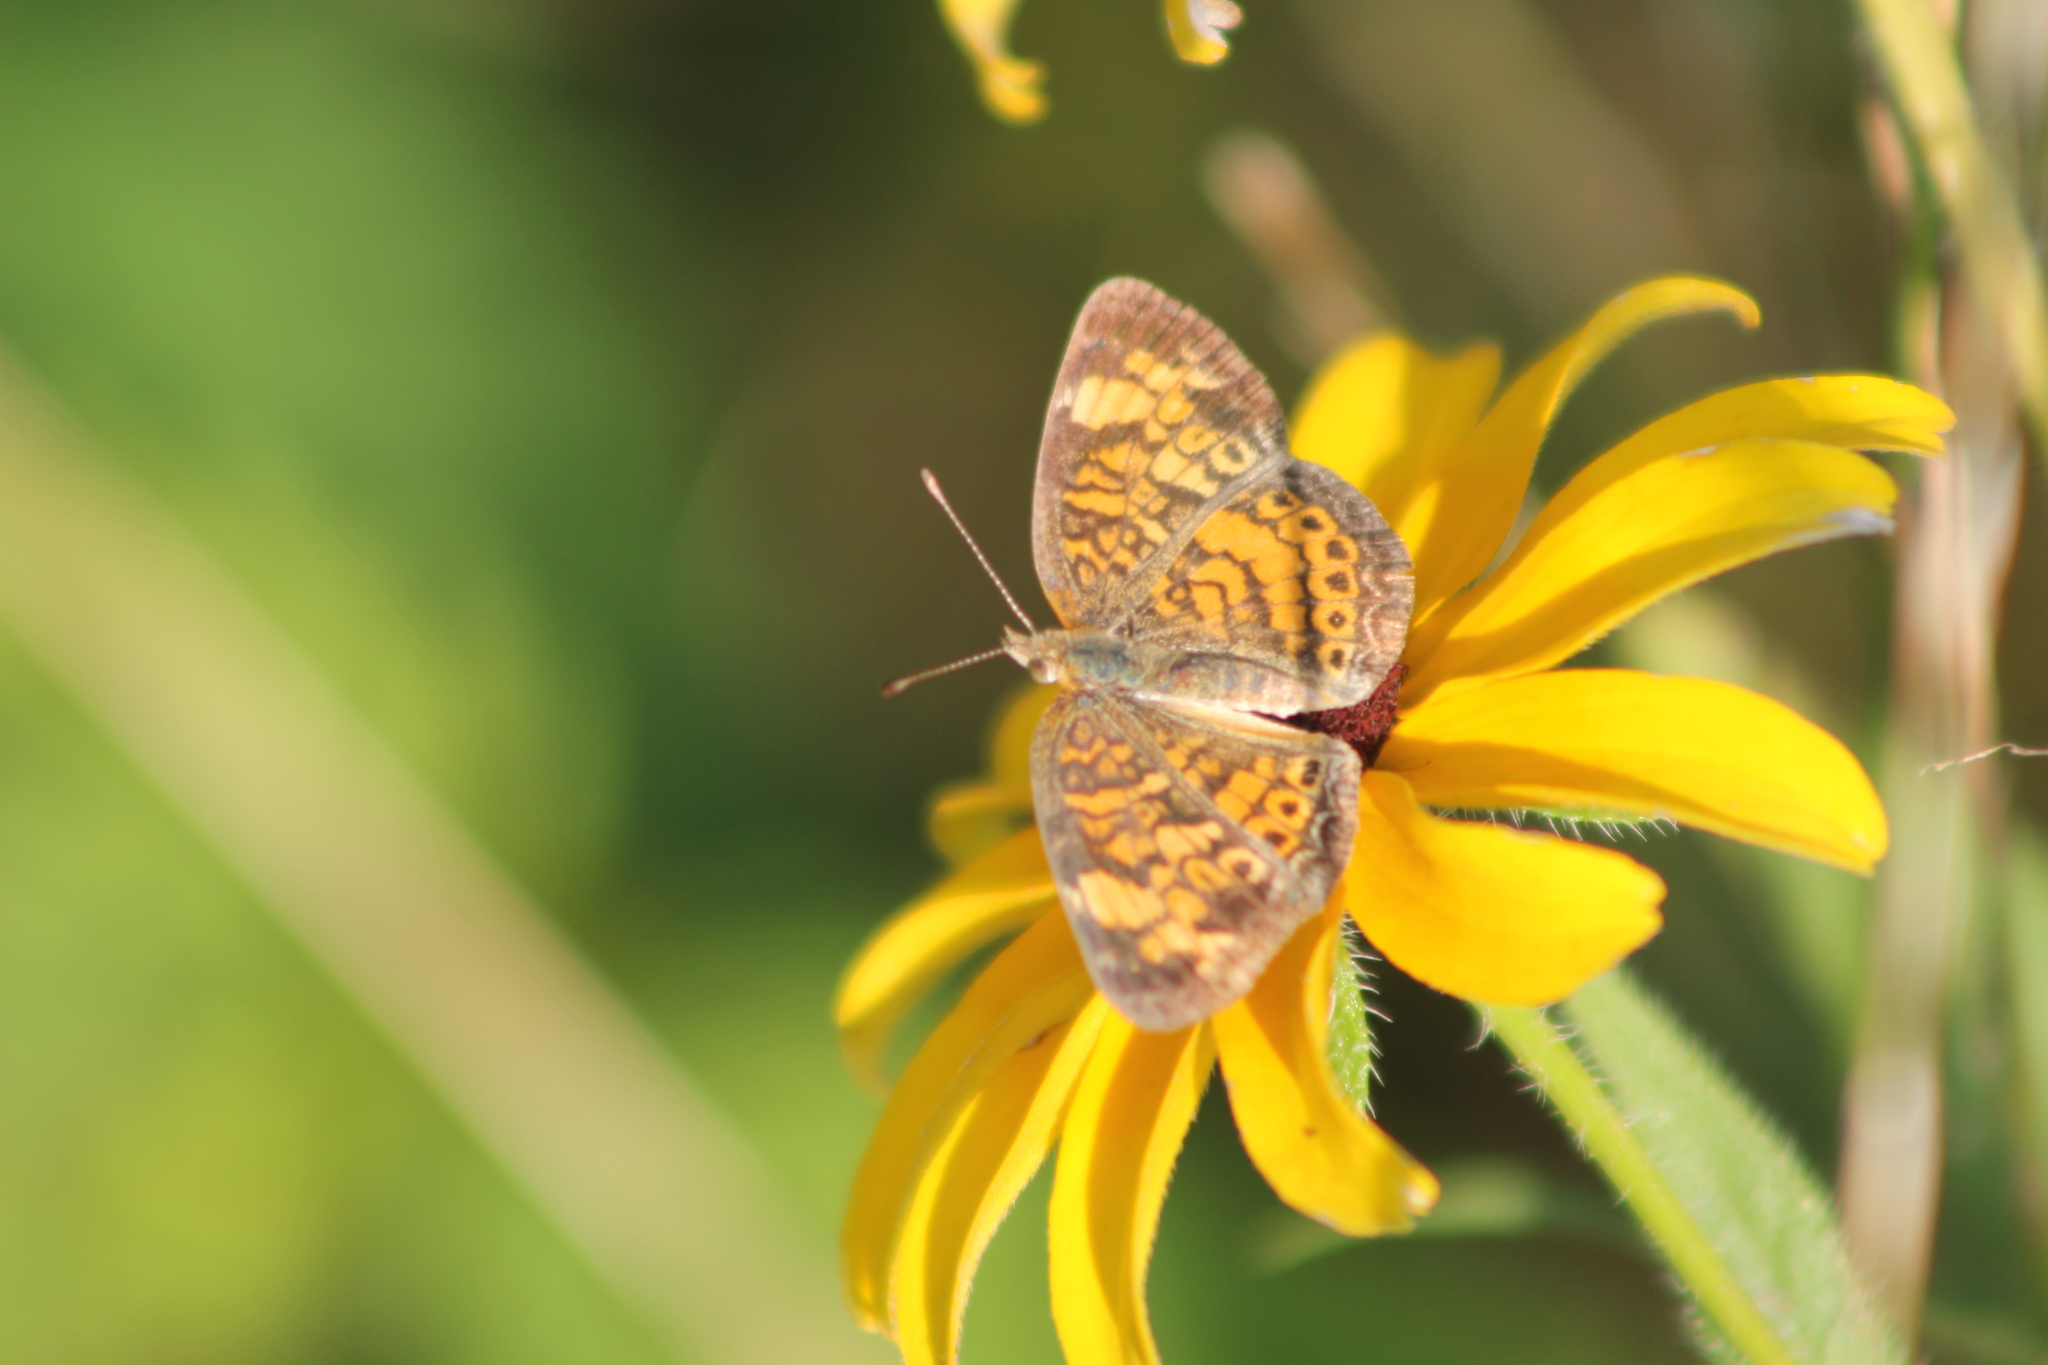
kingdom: Animalia
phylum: Arthropoda
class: Insecta
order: Lepidoptera
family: Nymphalidae
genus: Phyciodes
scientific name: Phyciodes tharos
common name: Pearl crescent
